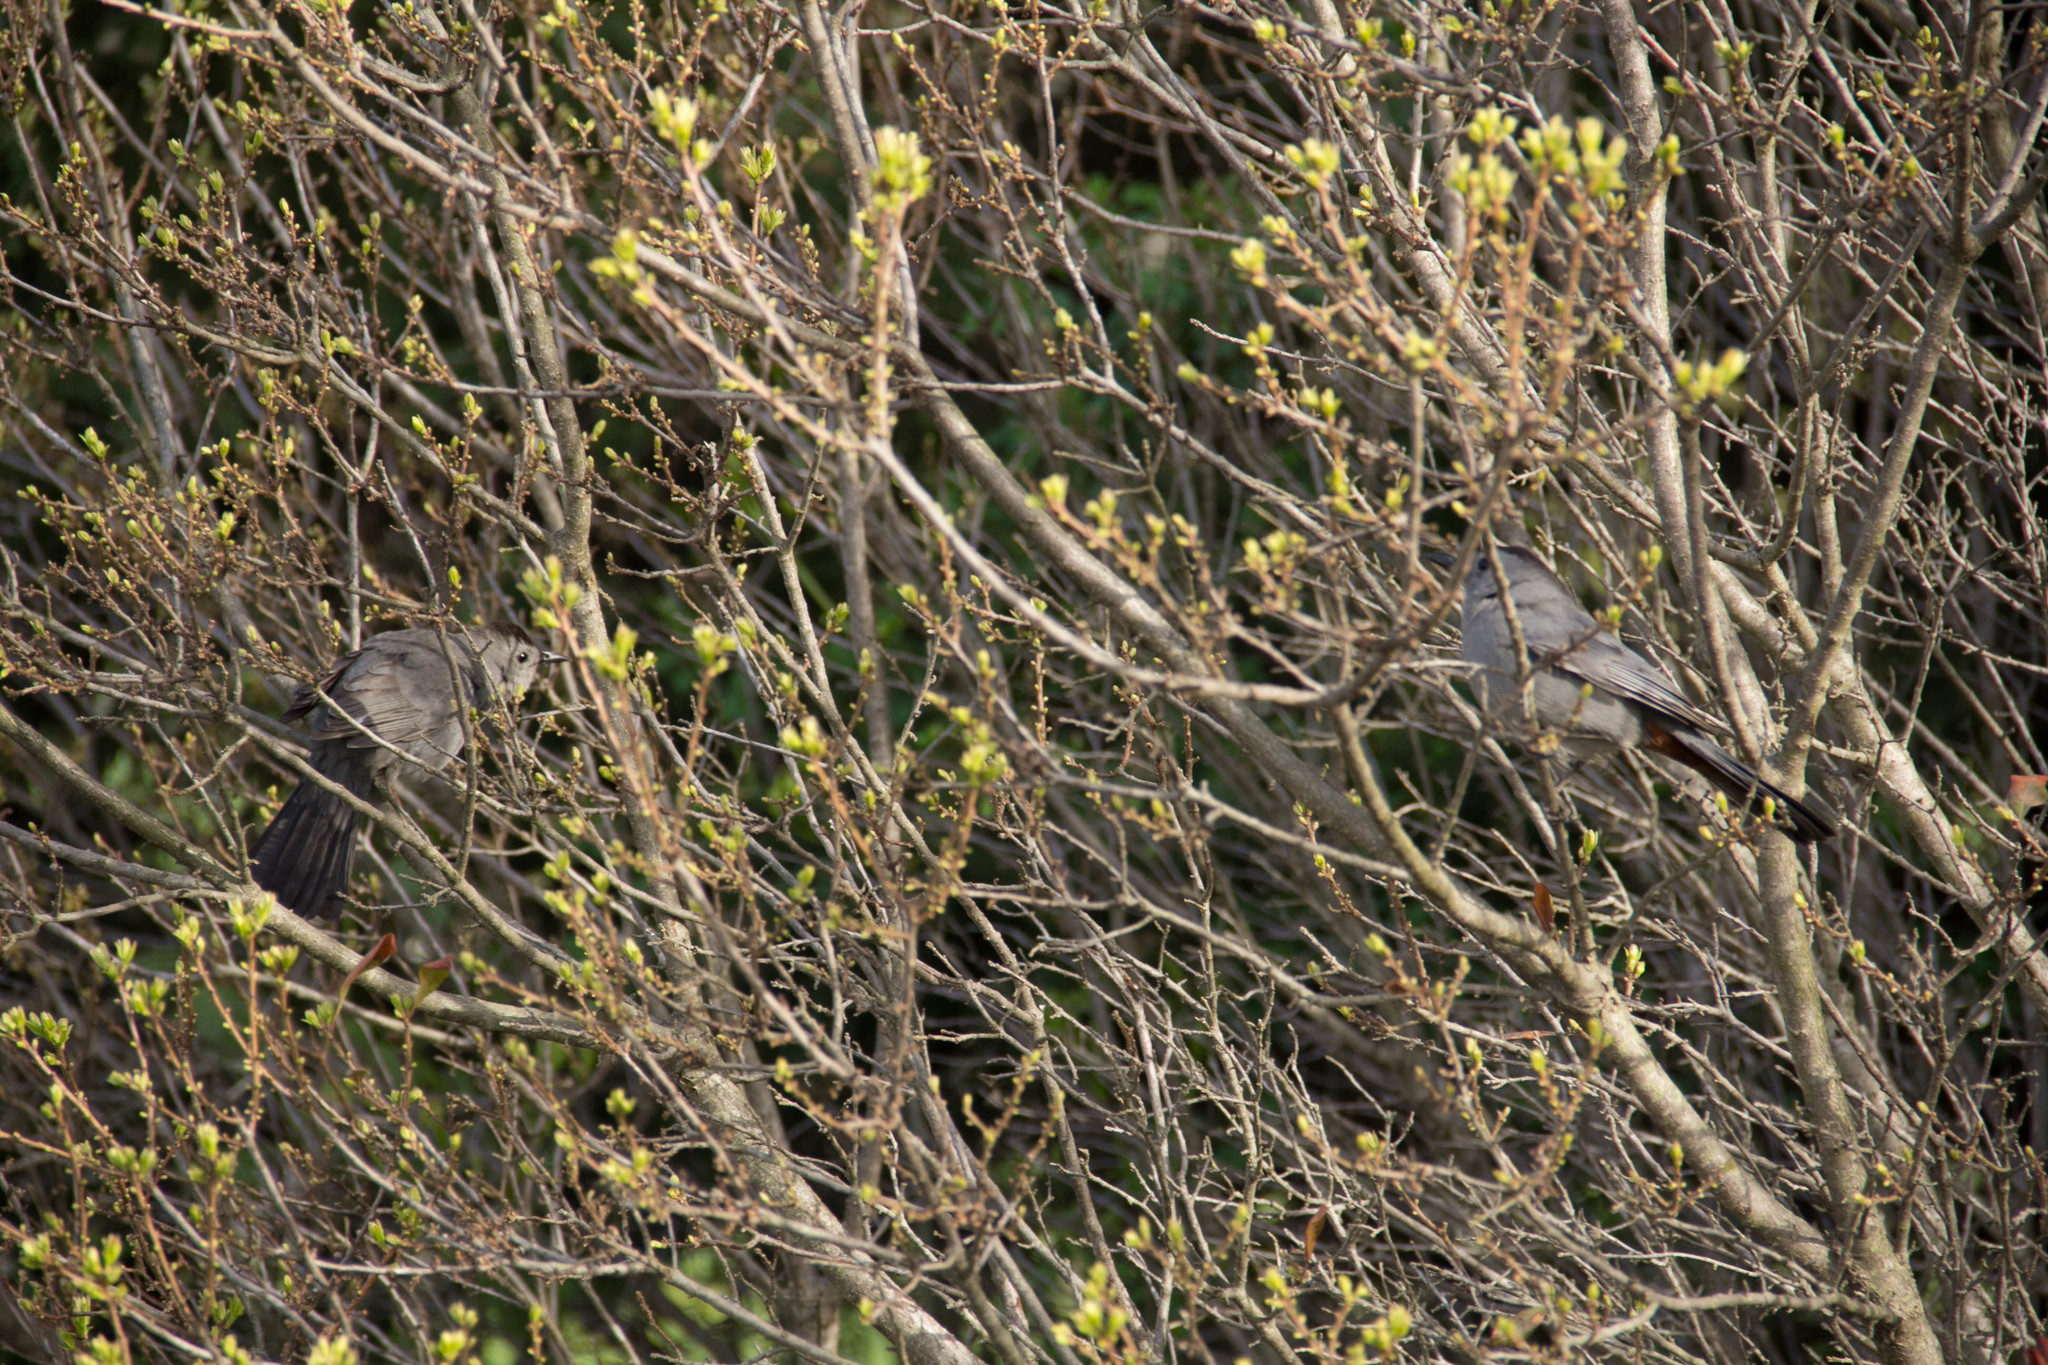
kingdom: Animalia
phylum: Chordata
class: Aves
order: Passeriformes
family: Mimidae
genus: Dumetella
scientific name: Dumetella carolinensis
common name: Gray catbird
